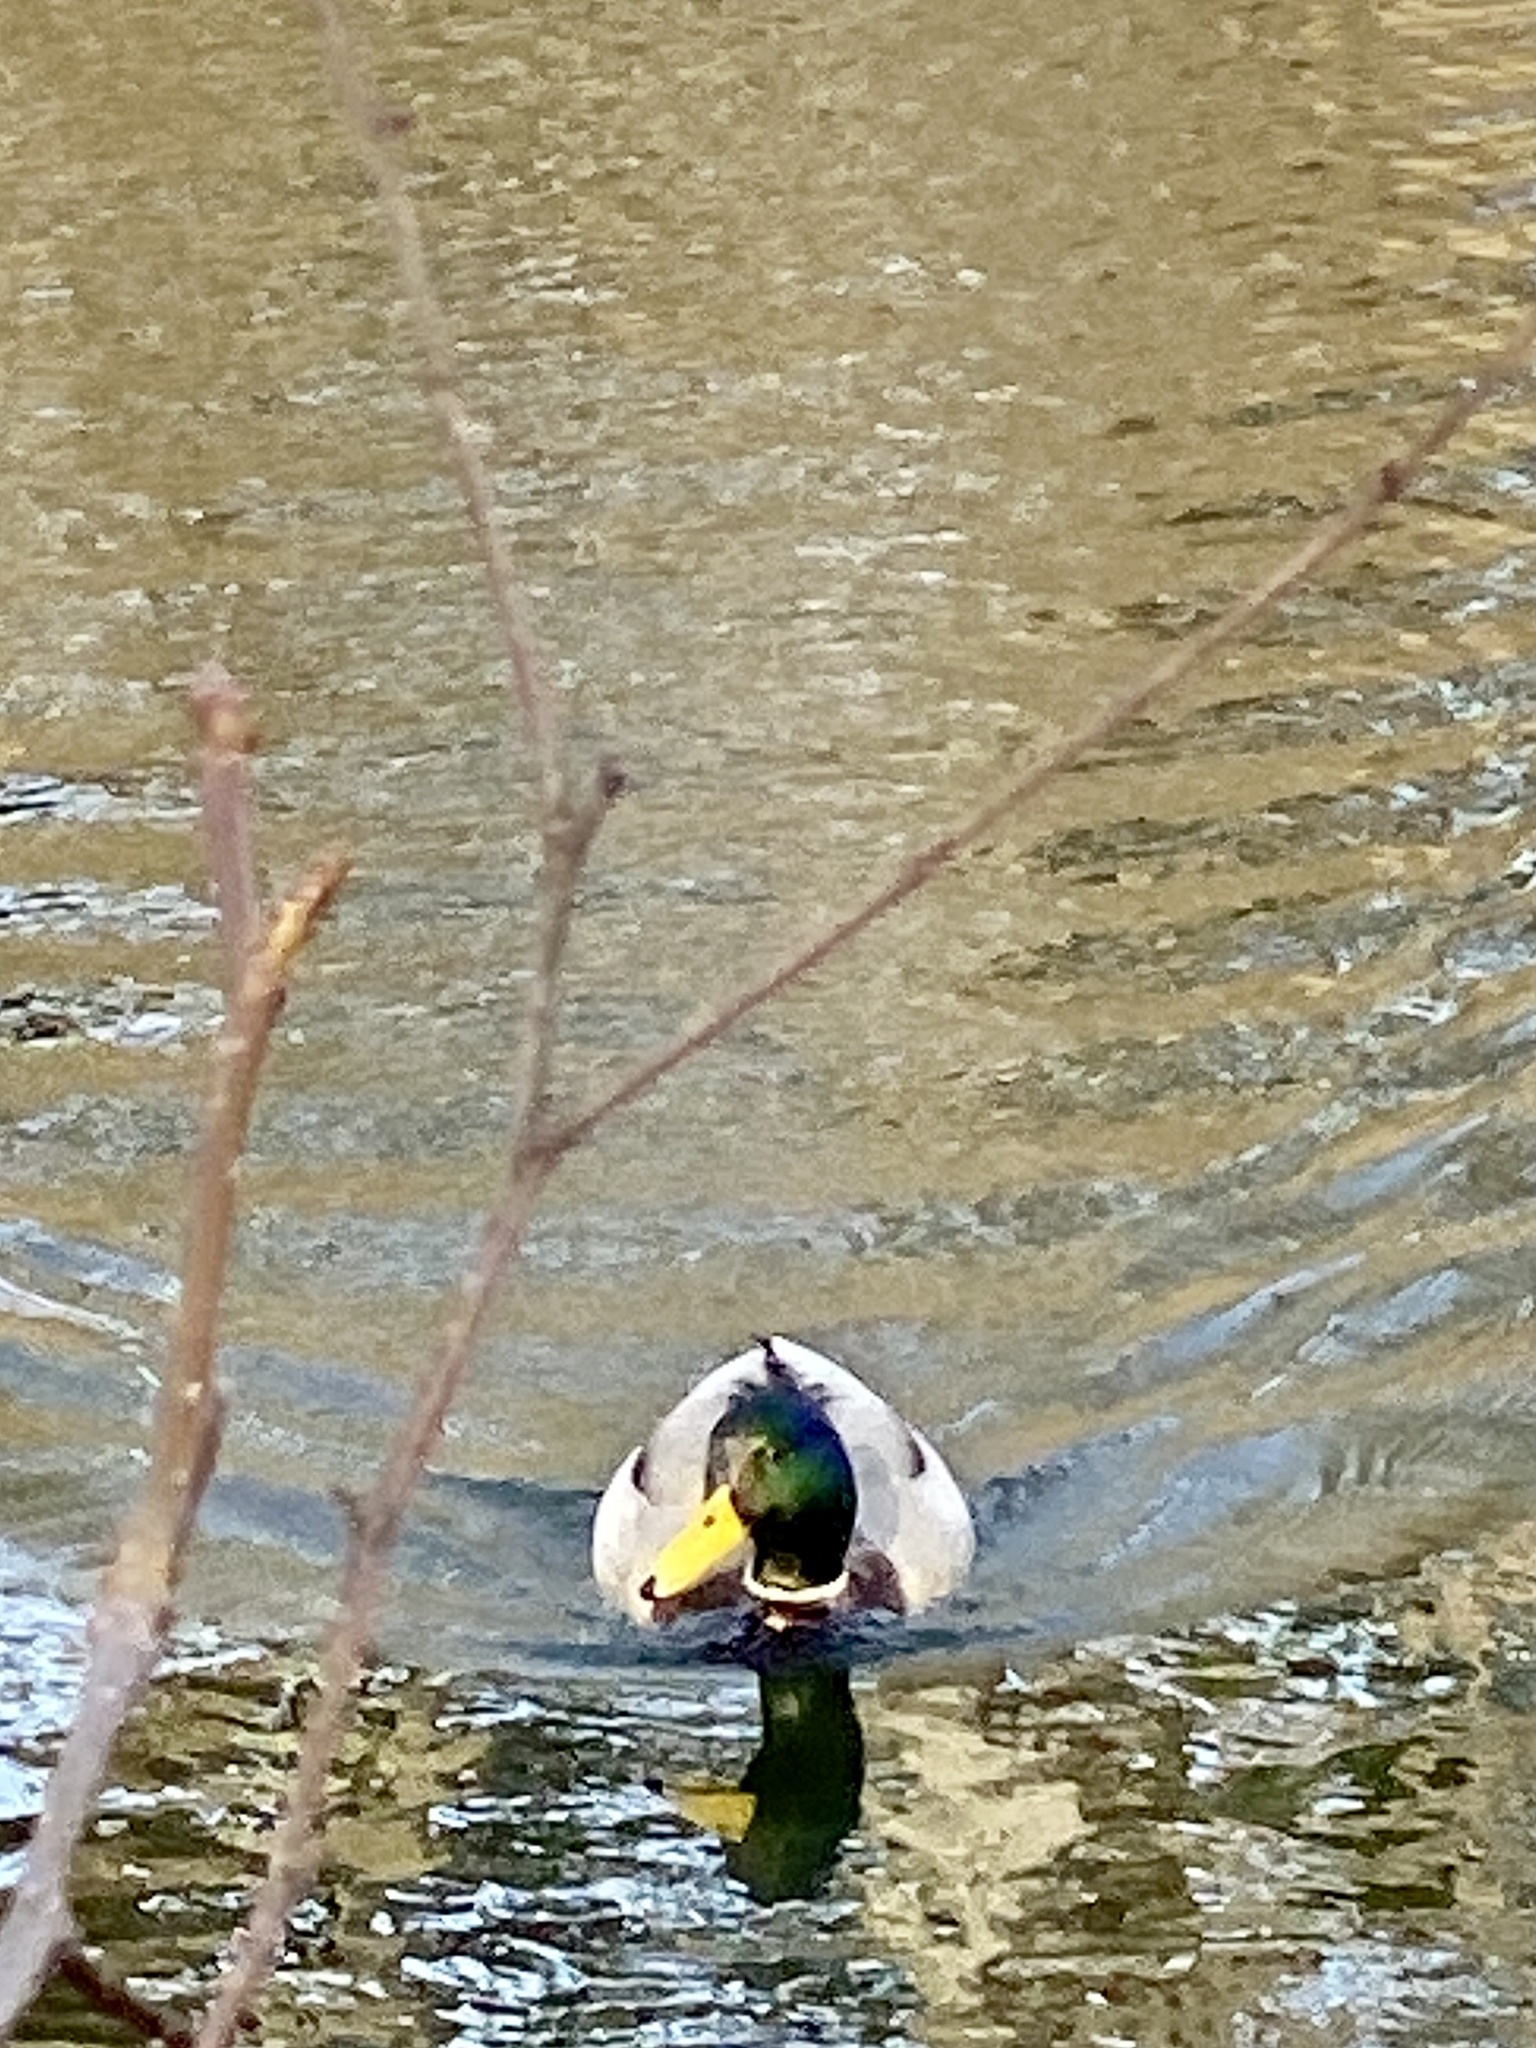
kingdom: Animalia
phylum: Chordata
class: Aves
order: Anseriformes
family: Anatidae
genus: Anas
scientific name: Anas platyrhynchos
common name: Mallard
